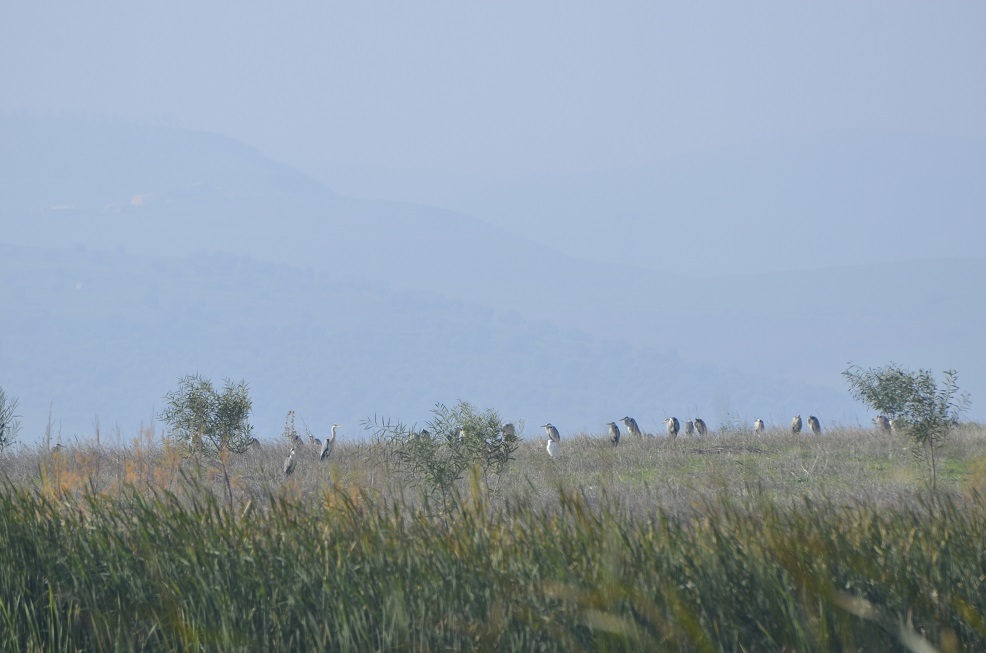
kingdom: Animalia
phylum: Chordata
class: Aves
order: Pelecaniformes
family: Ardeidae
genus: Ardea
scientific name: Ardea cinerea
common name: Grey heron
